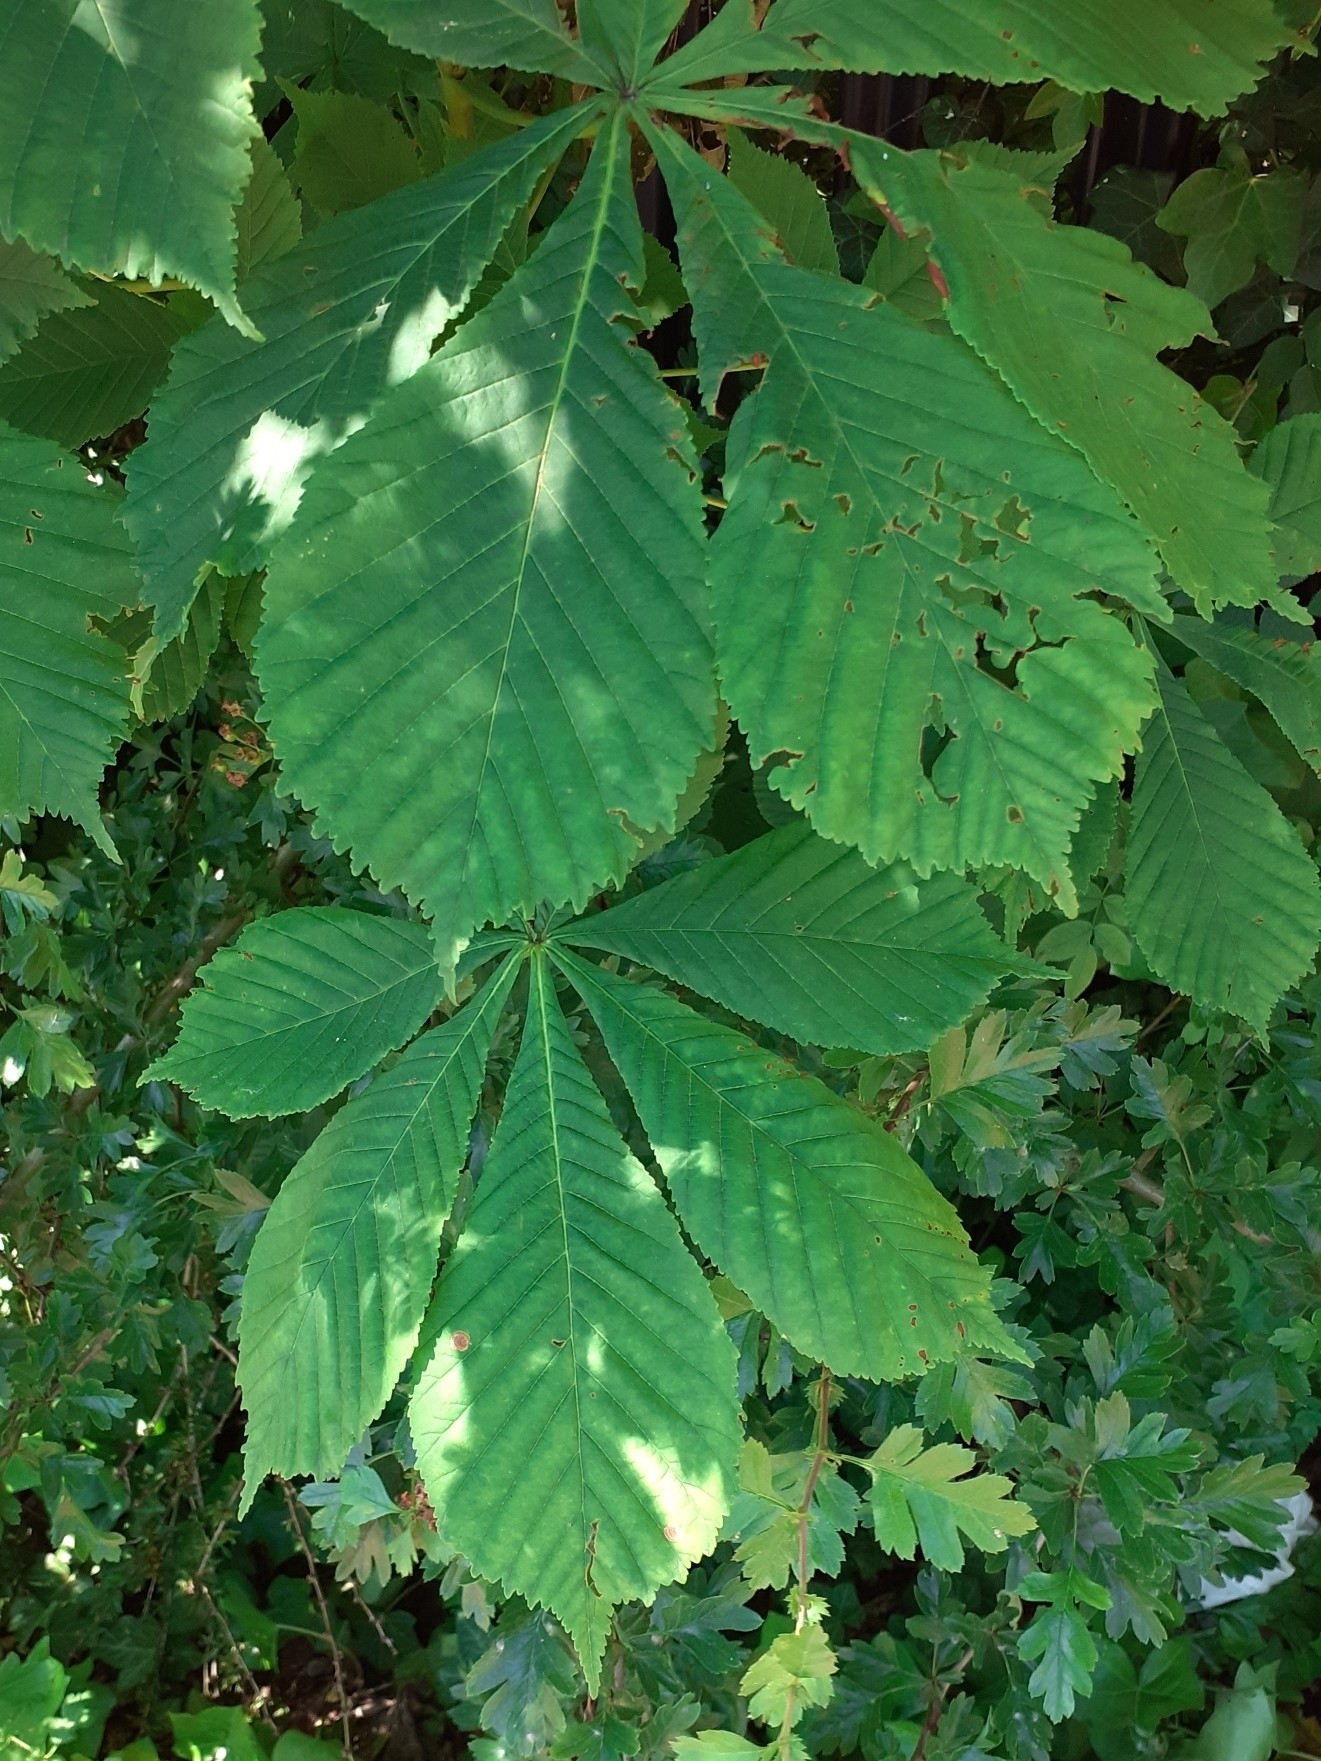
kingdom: Plantae
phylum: Tracheophyta
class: Magnoliopsida
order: Sapindales
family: Sapindaceae
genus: Aesculus
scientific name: Aesculus hippocastanum
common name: Horse-chestnut
